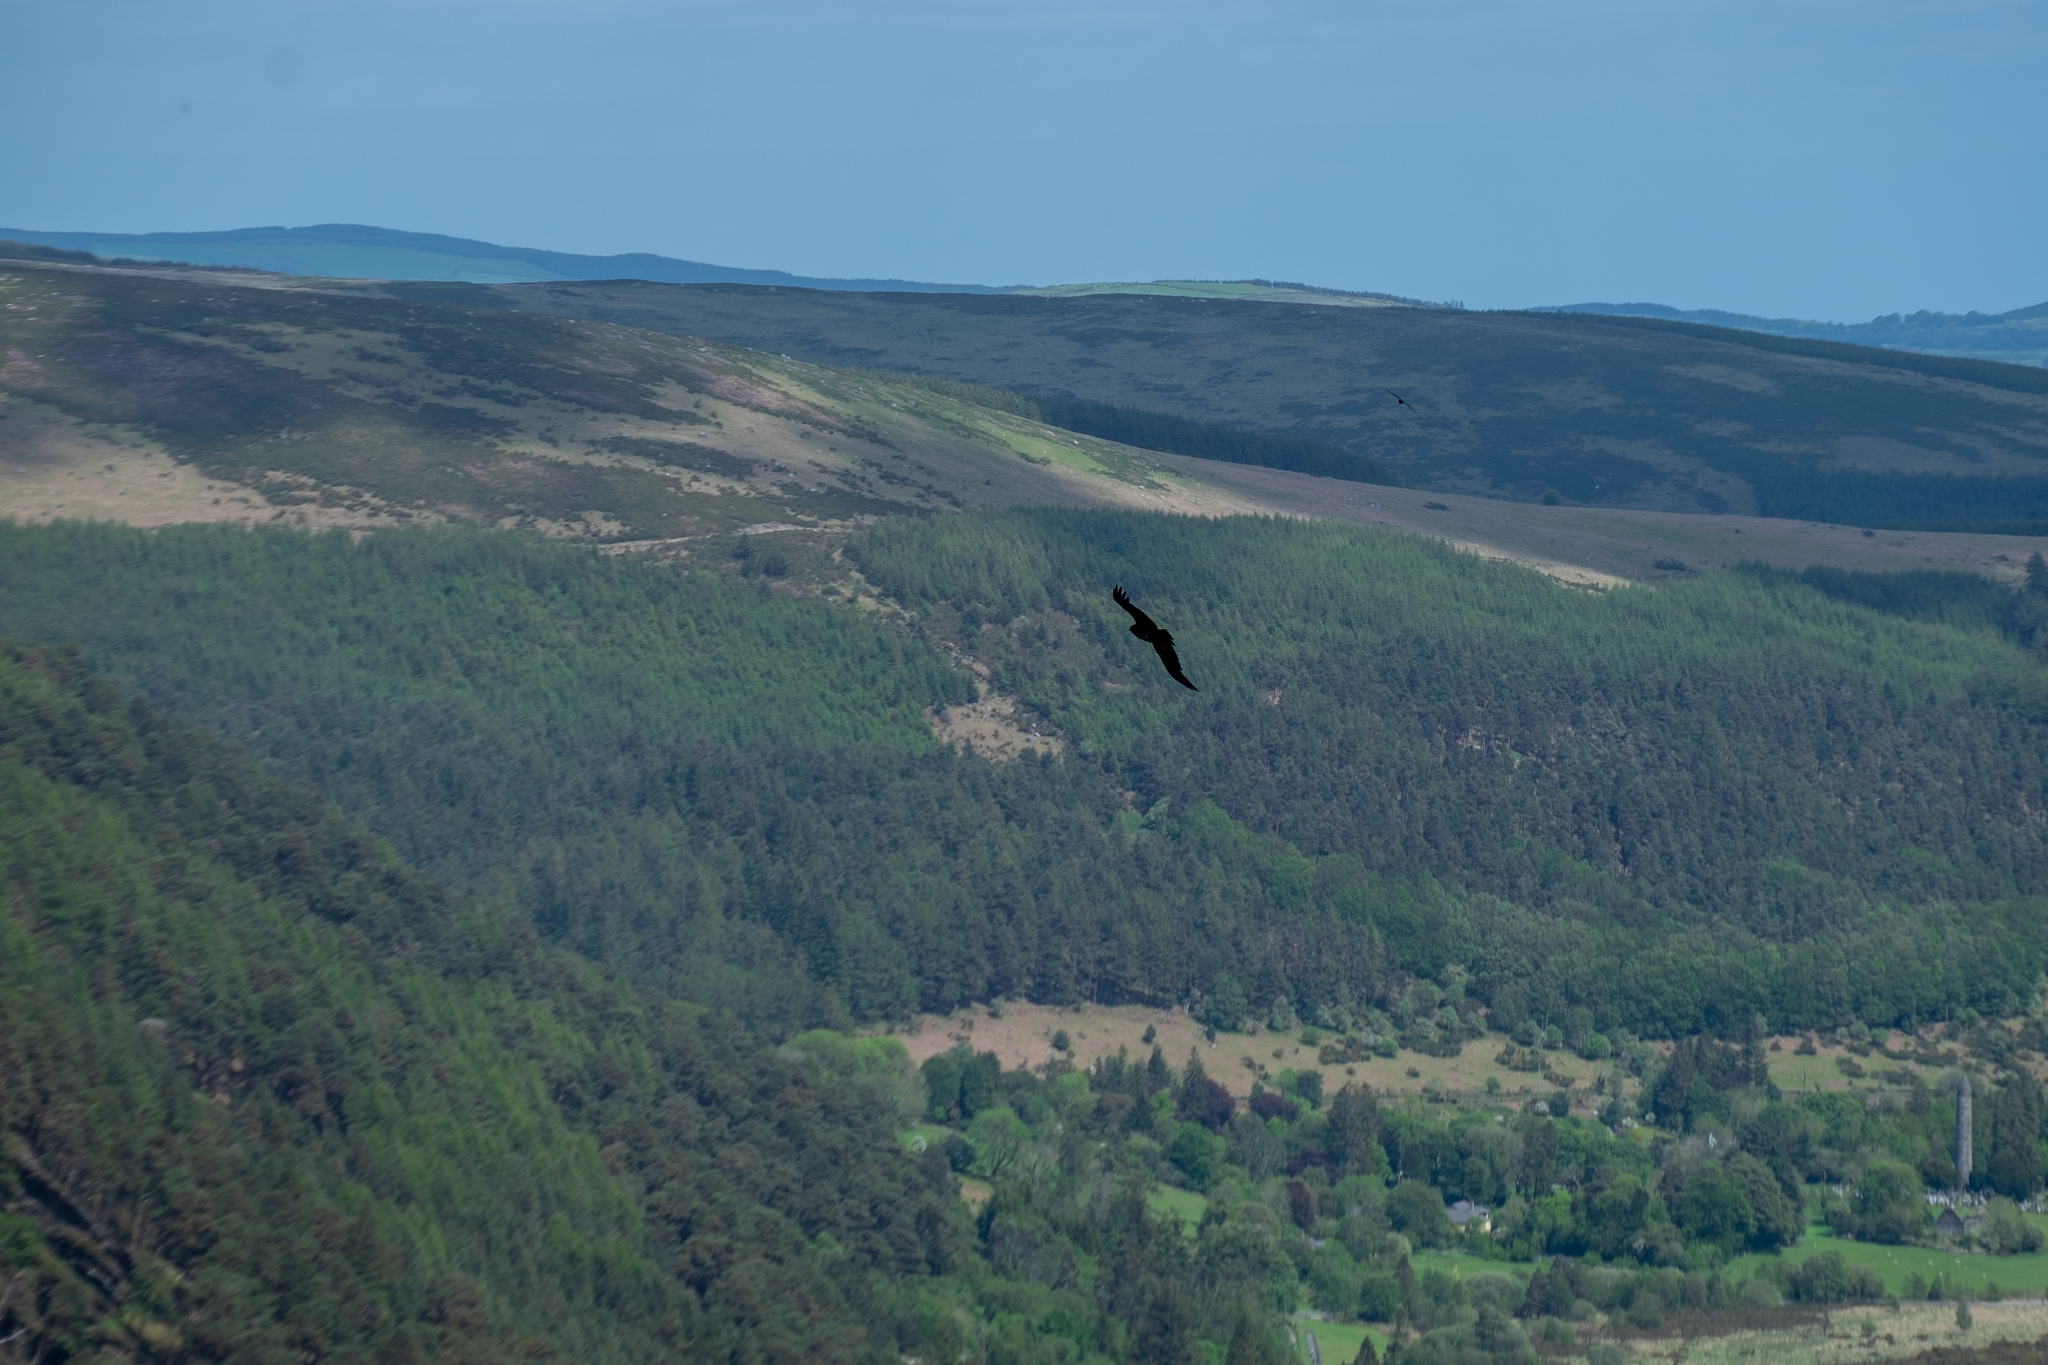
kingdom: Animalia
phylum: Chordata
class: Aves
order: Passeriformes
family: Corvidae
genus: Corvus
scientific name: Corvus corax
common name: Common raven
